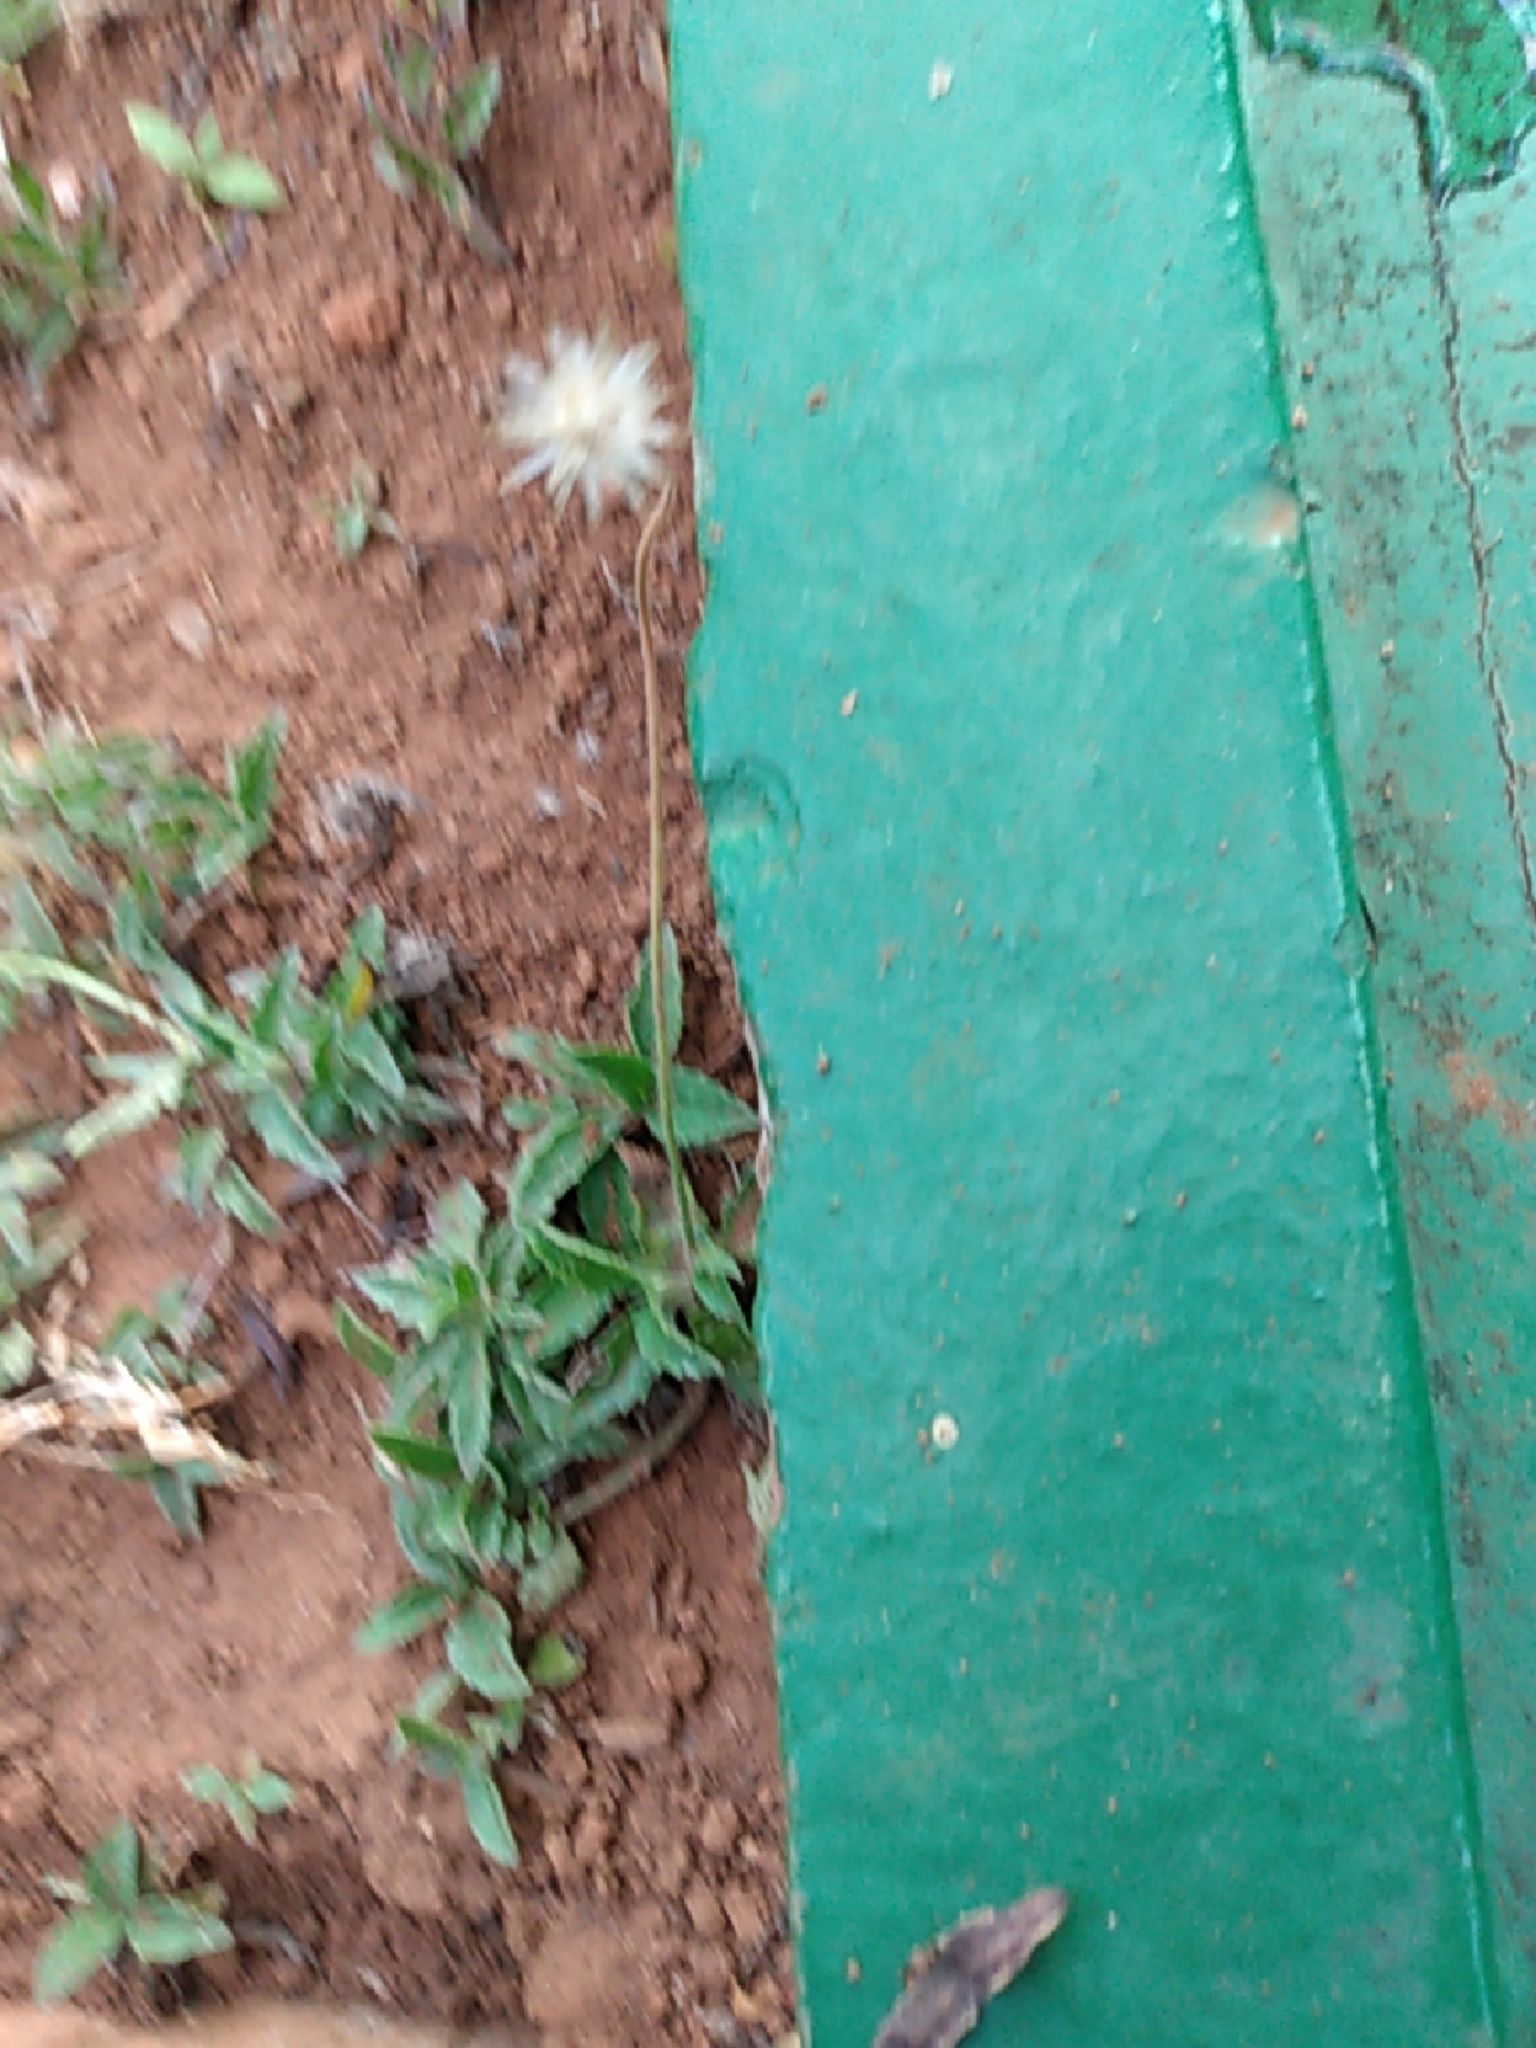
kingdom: Plantae
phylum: Tracheophyta
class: Magnoliopsida
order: Asterales
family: Asteraceae
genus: Tridax
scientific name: Tridax procumbens
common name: Coatbuttons
